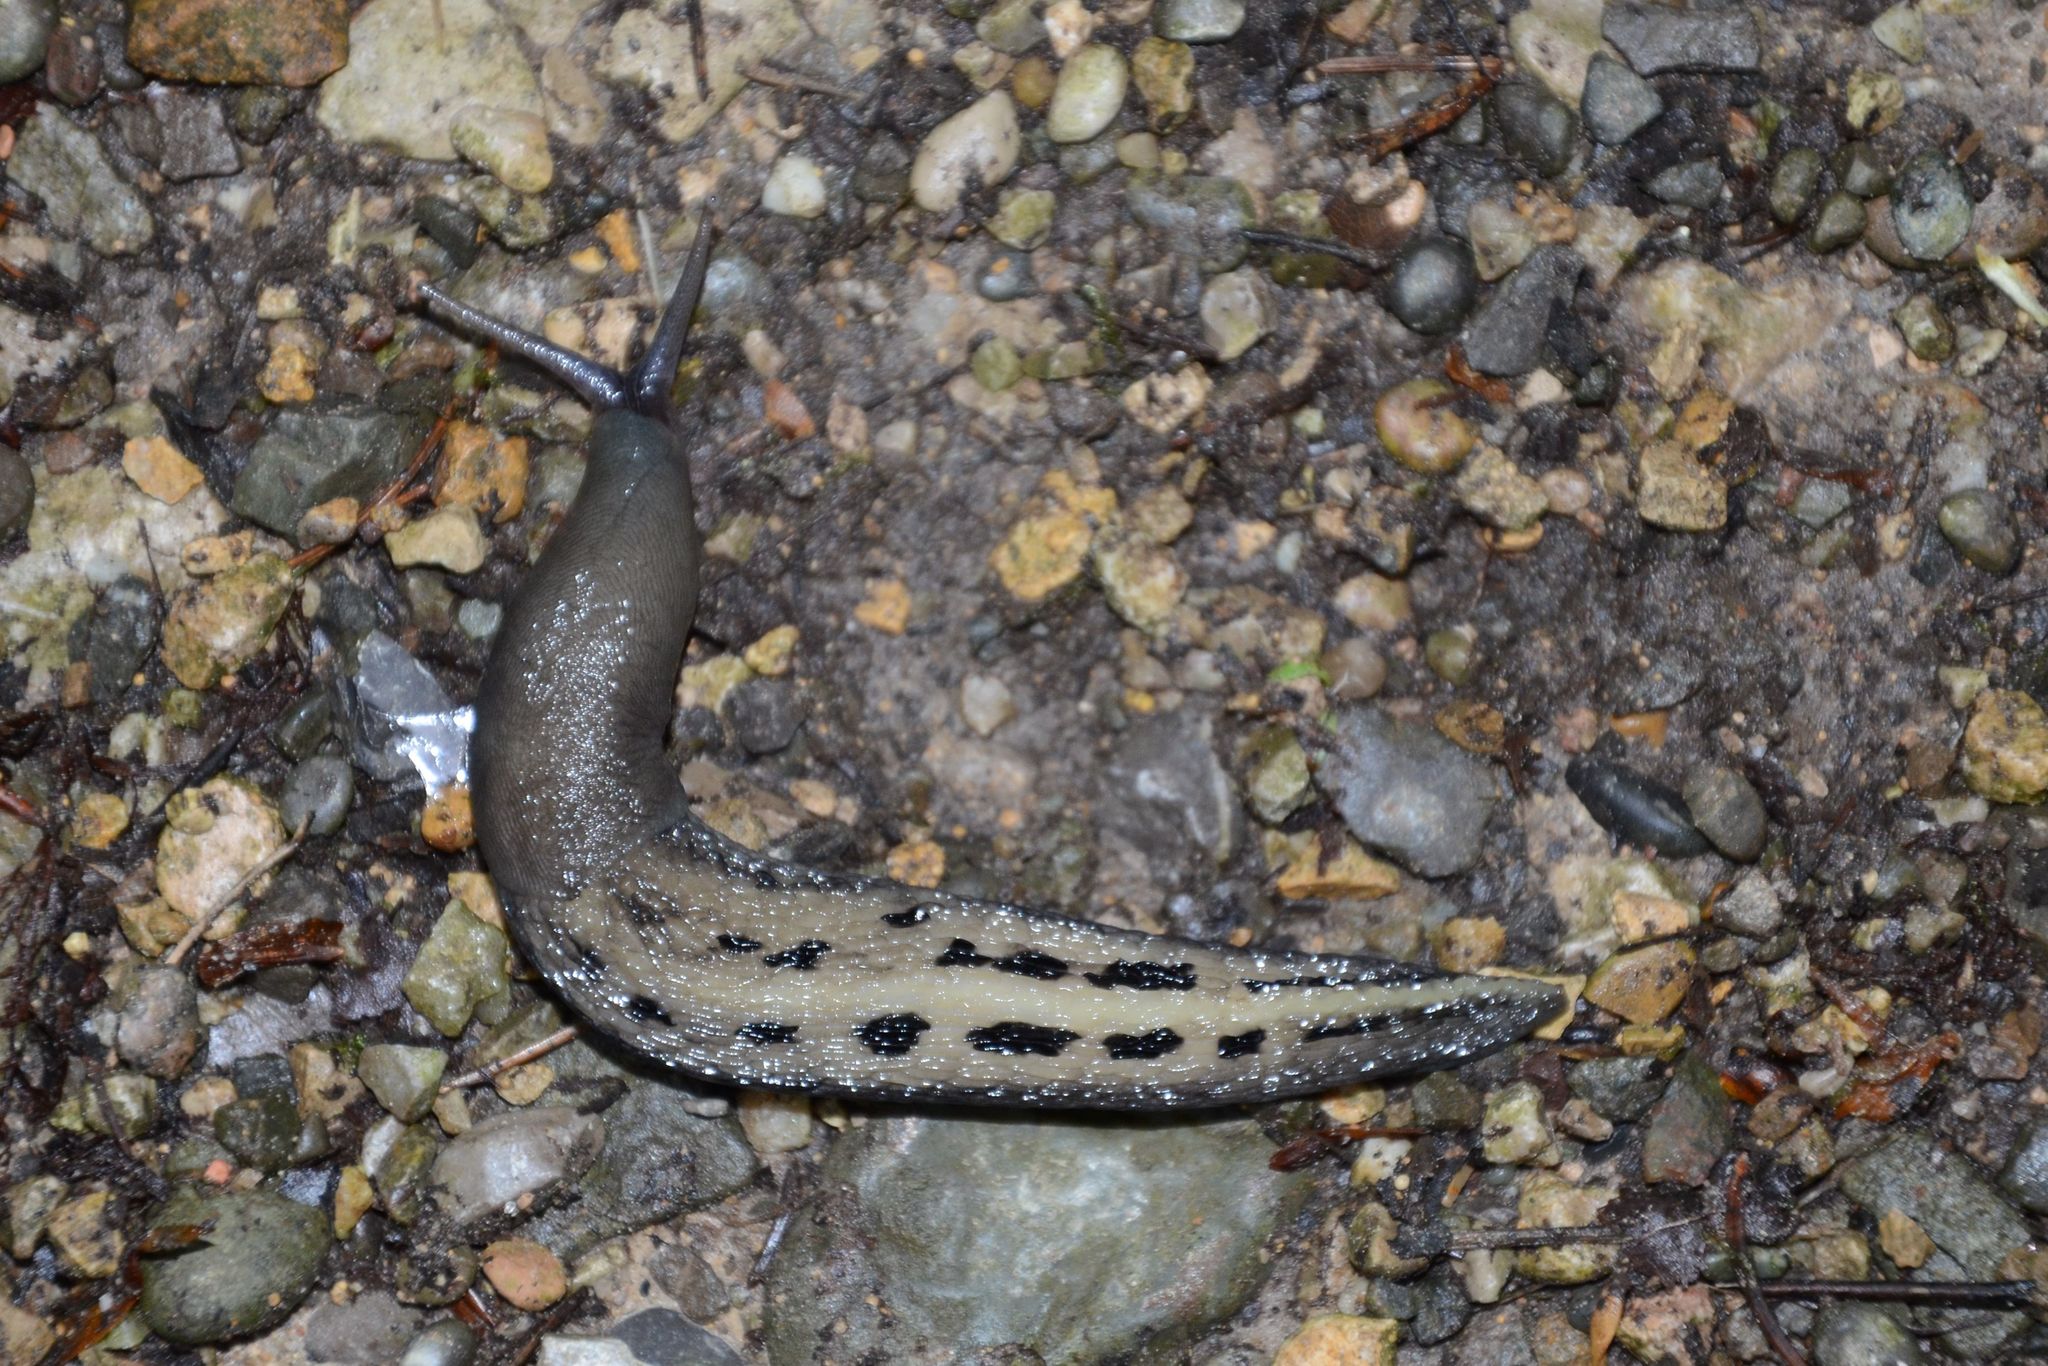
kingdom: Animalia
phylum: Mollusca
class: Gastropoda
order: Stylommatophora
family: Limacidae
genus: Limax
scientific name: Limax cinereoniger
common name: Ash-black slug
